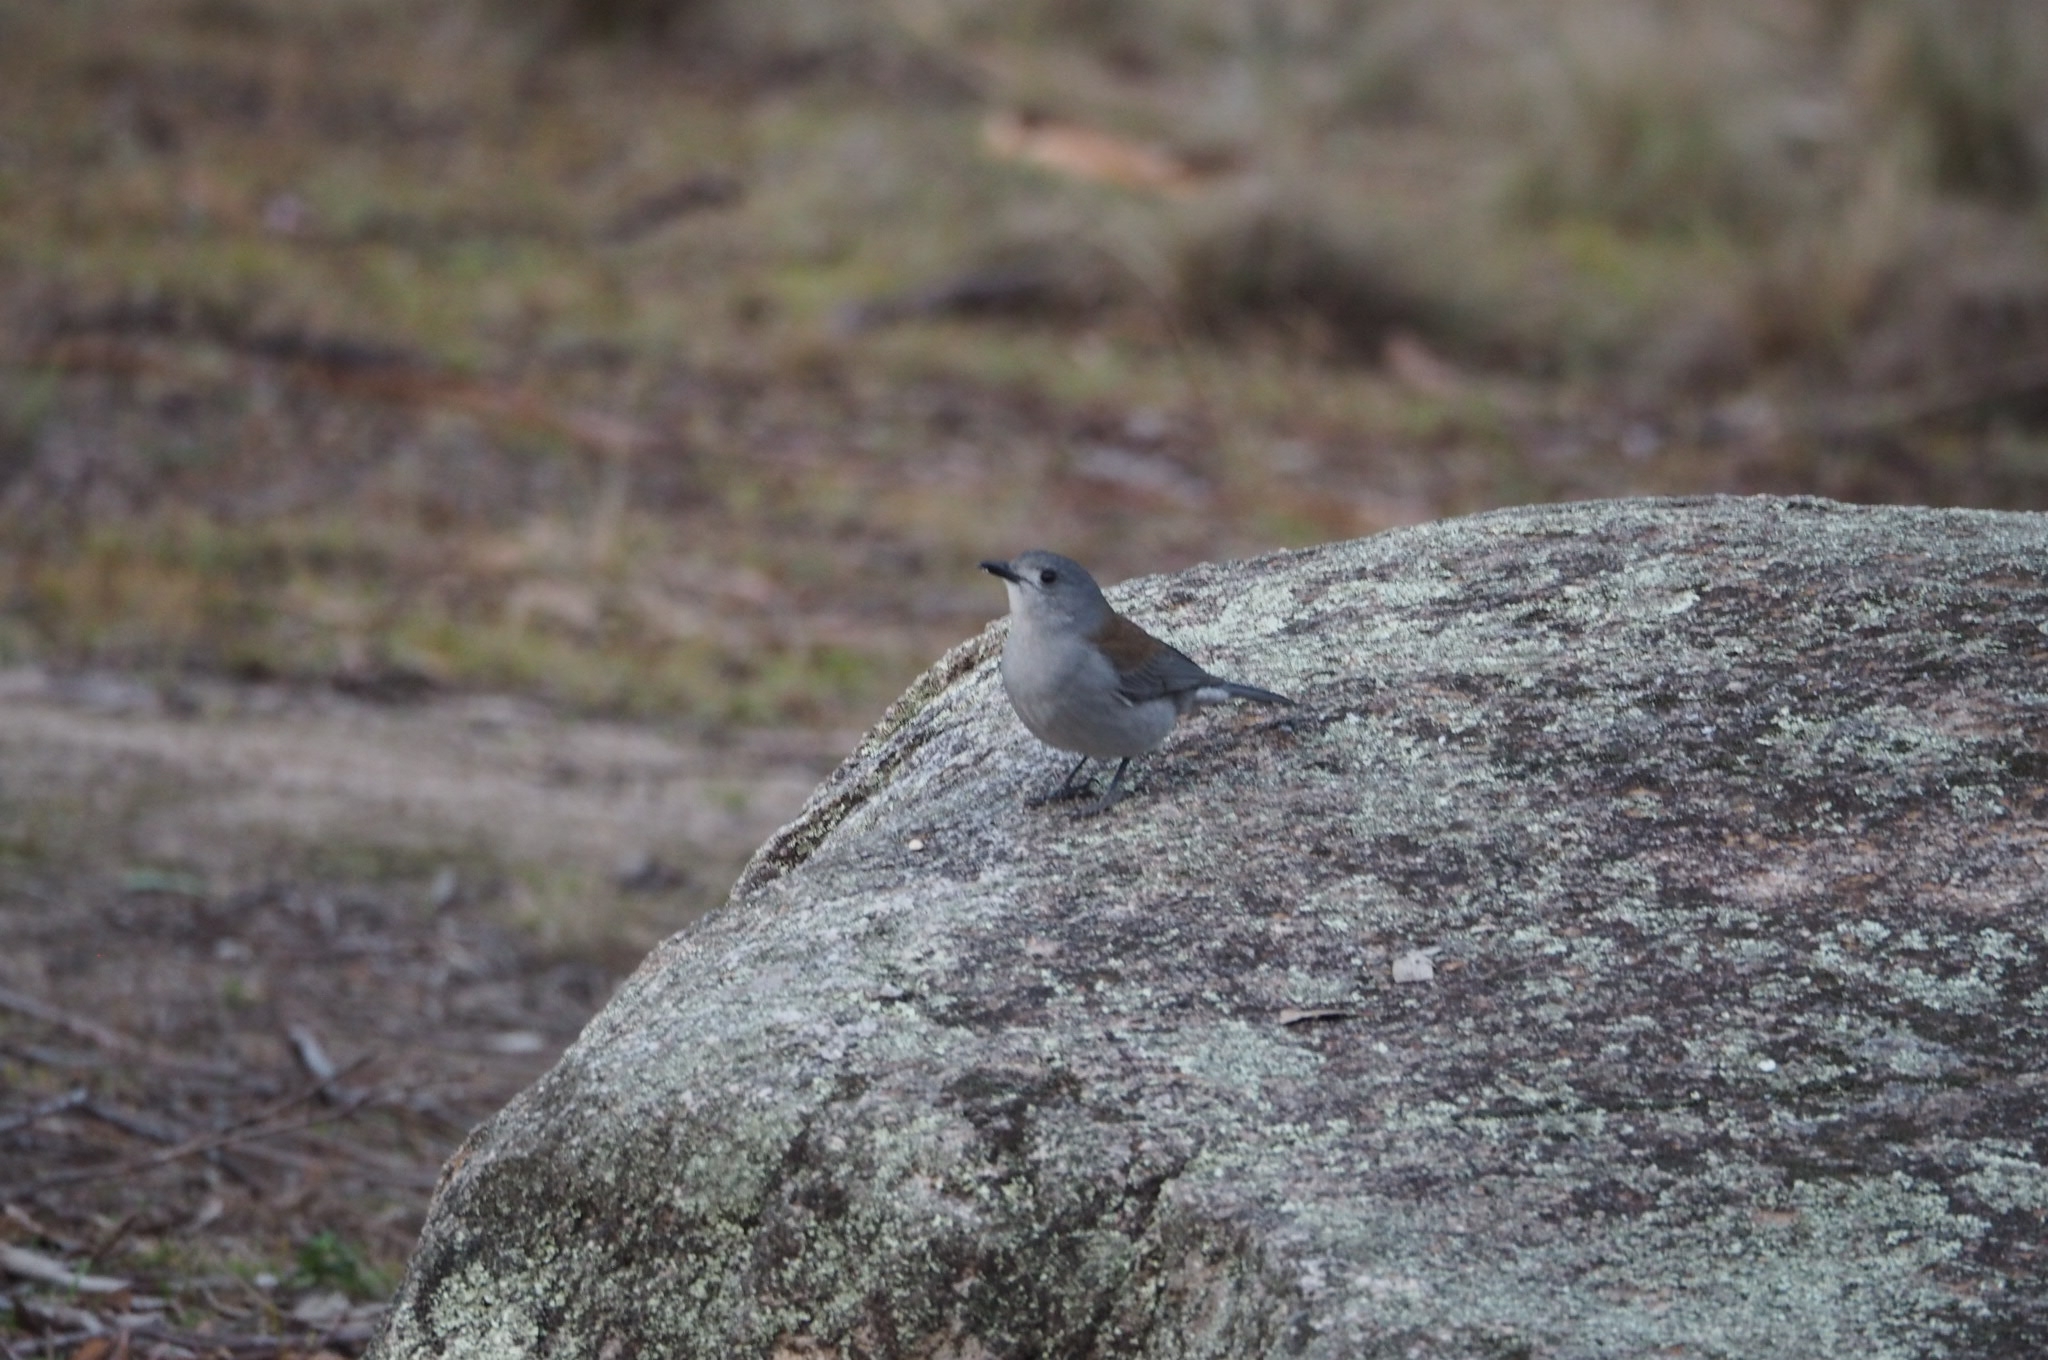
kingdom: Animalia
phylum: Chordata
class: Aves
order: Passeriformes
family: Pachycephalidae
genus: Colluricincla
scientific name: Colluricincla harmonica
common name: Grey shrikethrush
